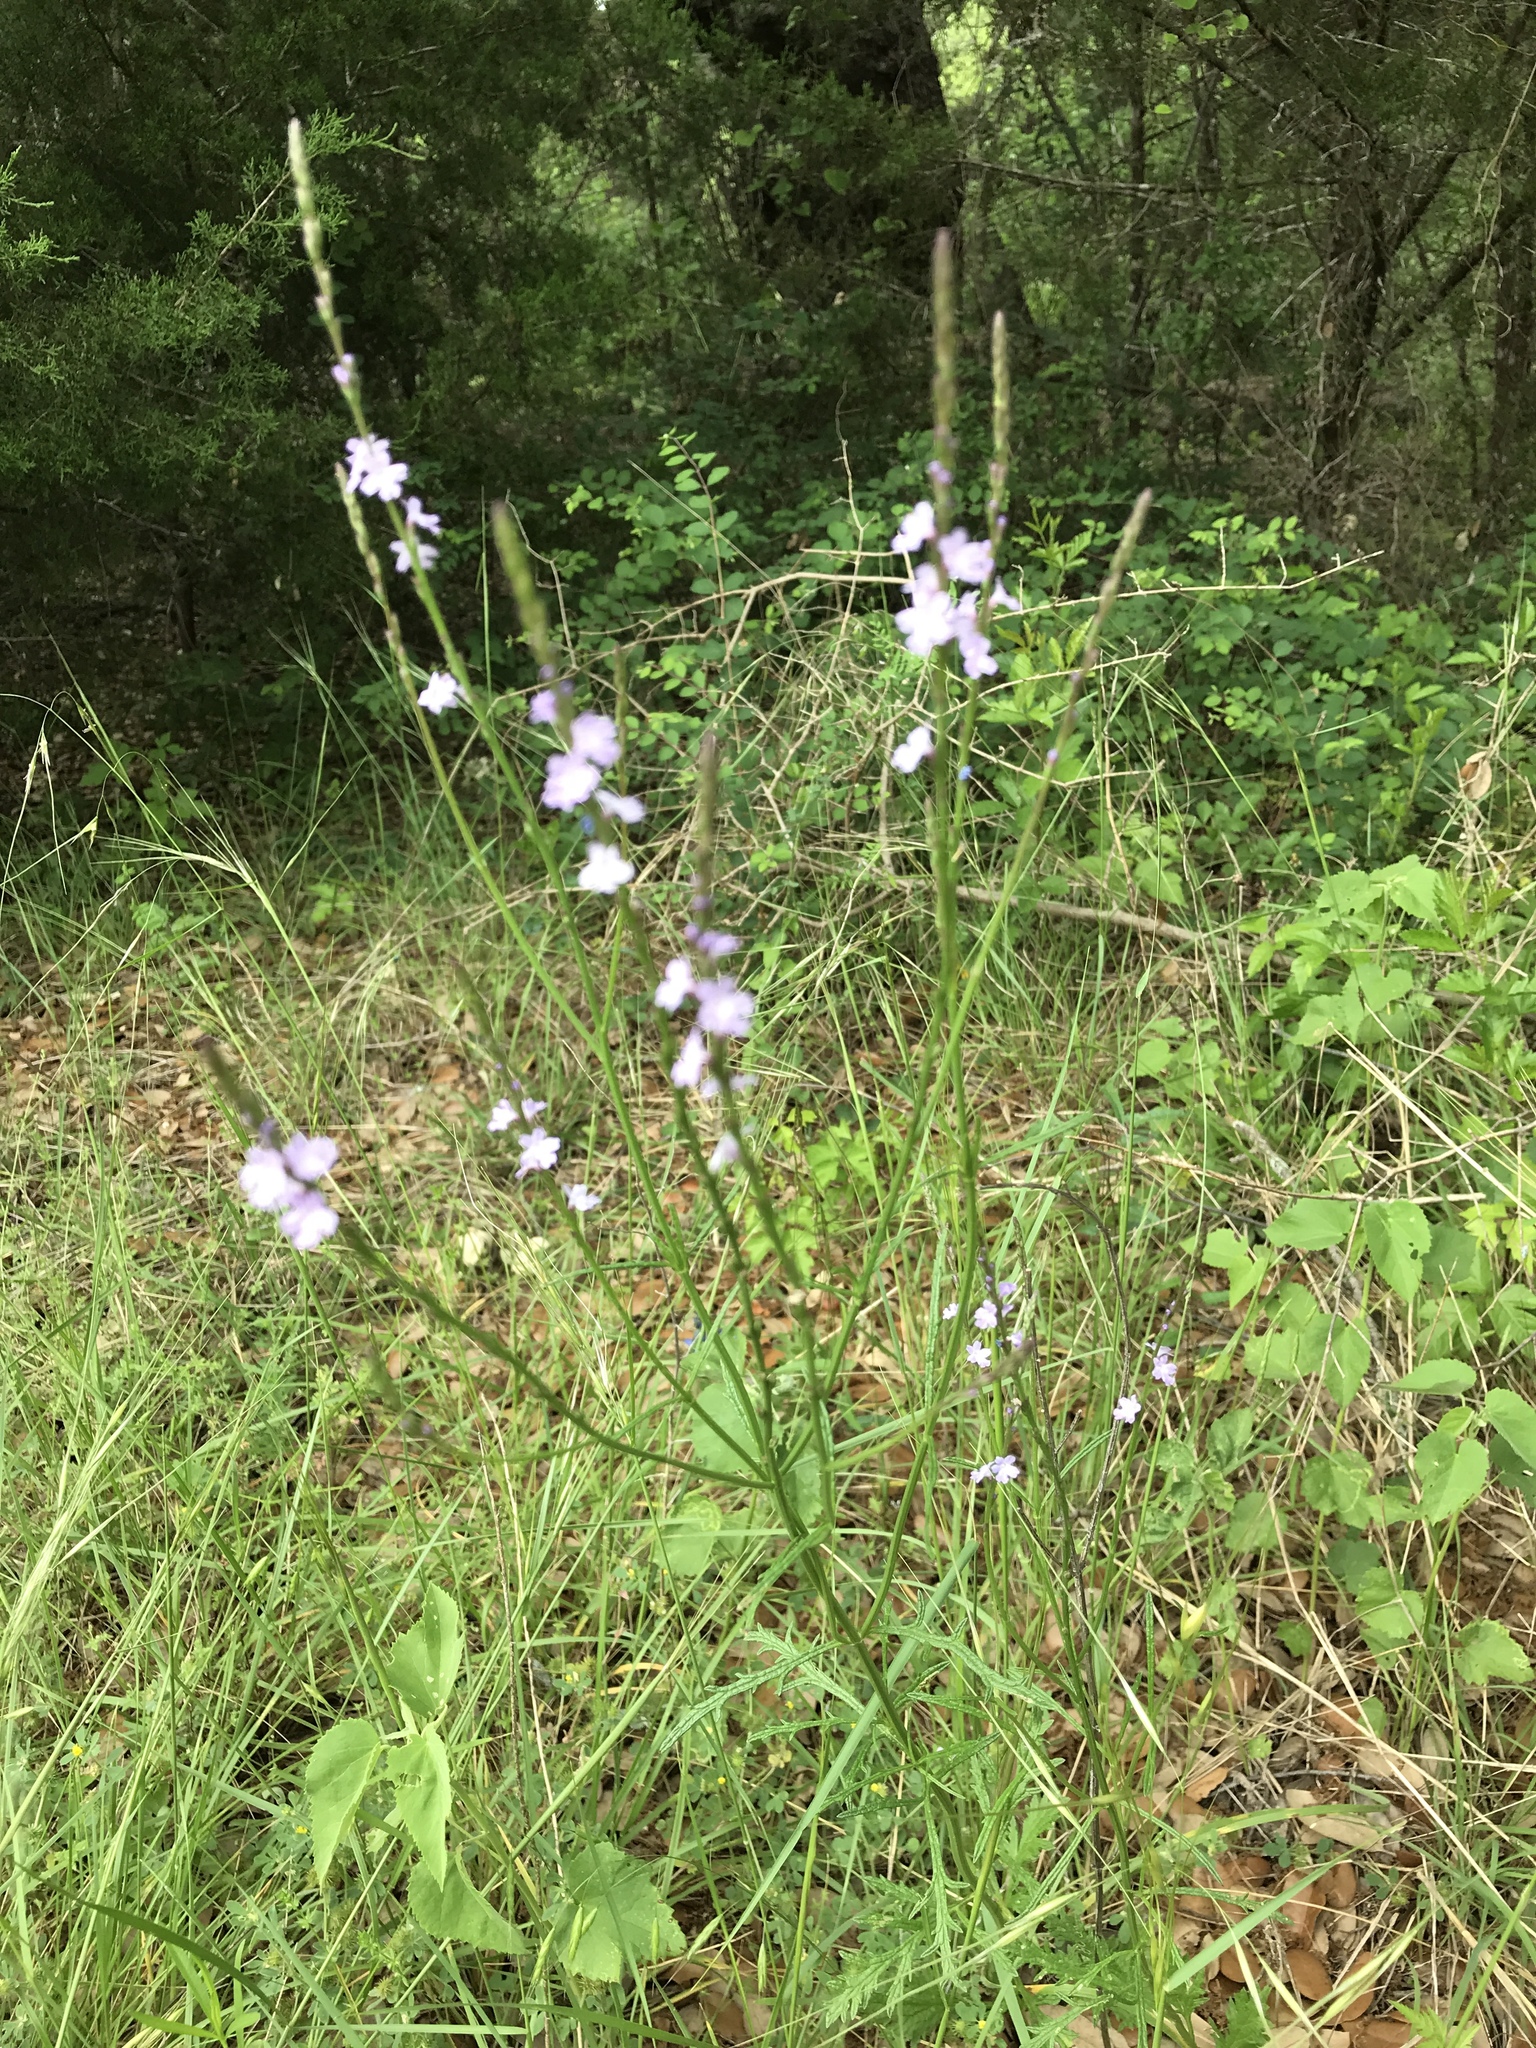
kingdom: Plantae
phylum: Tracheophyta
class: Magnoliopsida
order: Lamiales
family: Verbenaceae
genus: Verbena
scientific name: Verbena halei
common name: Texas vervain
